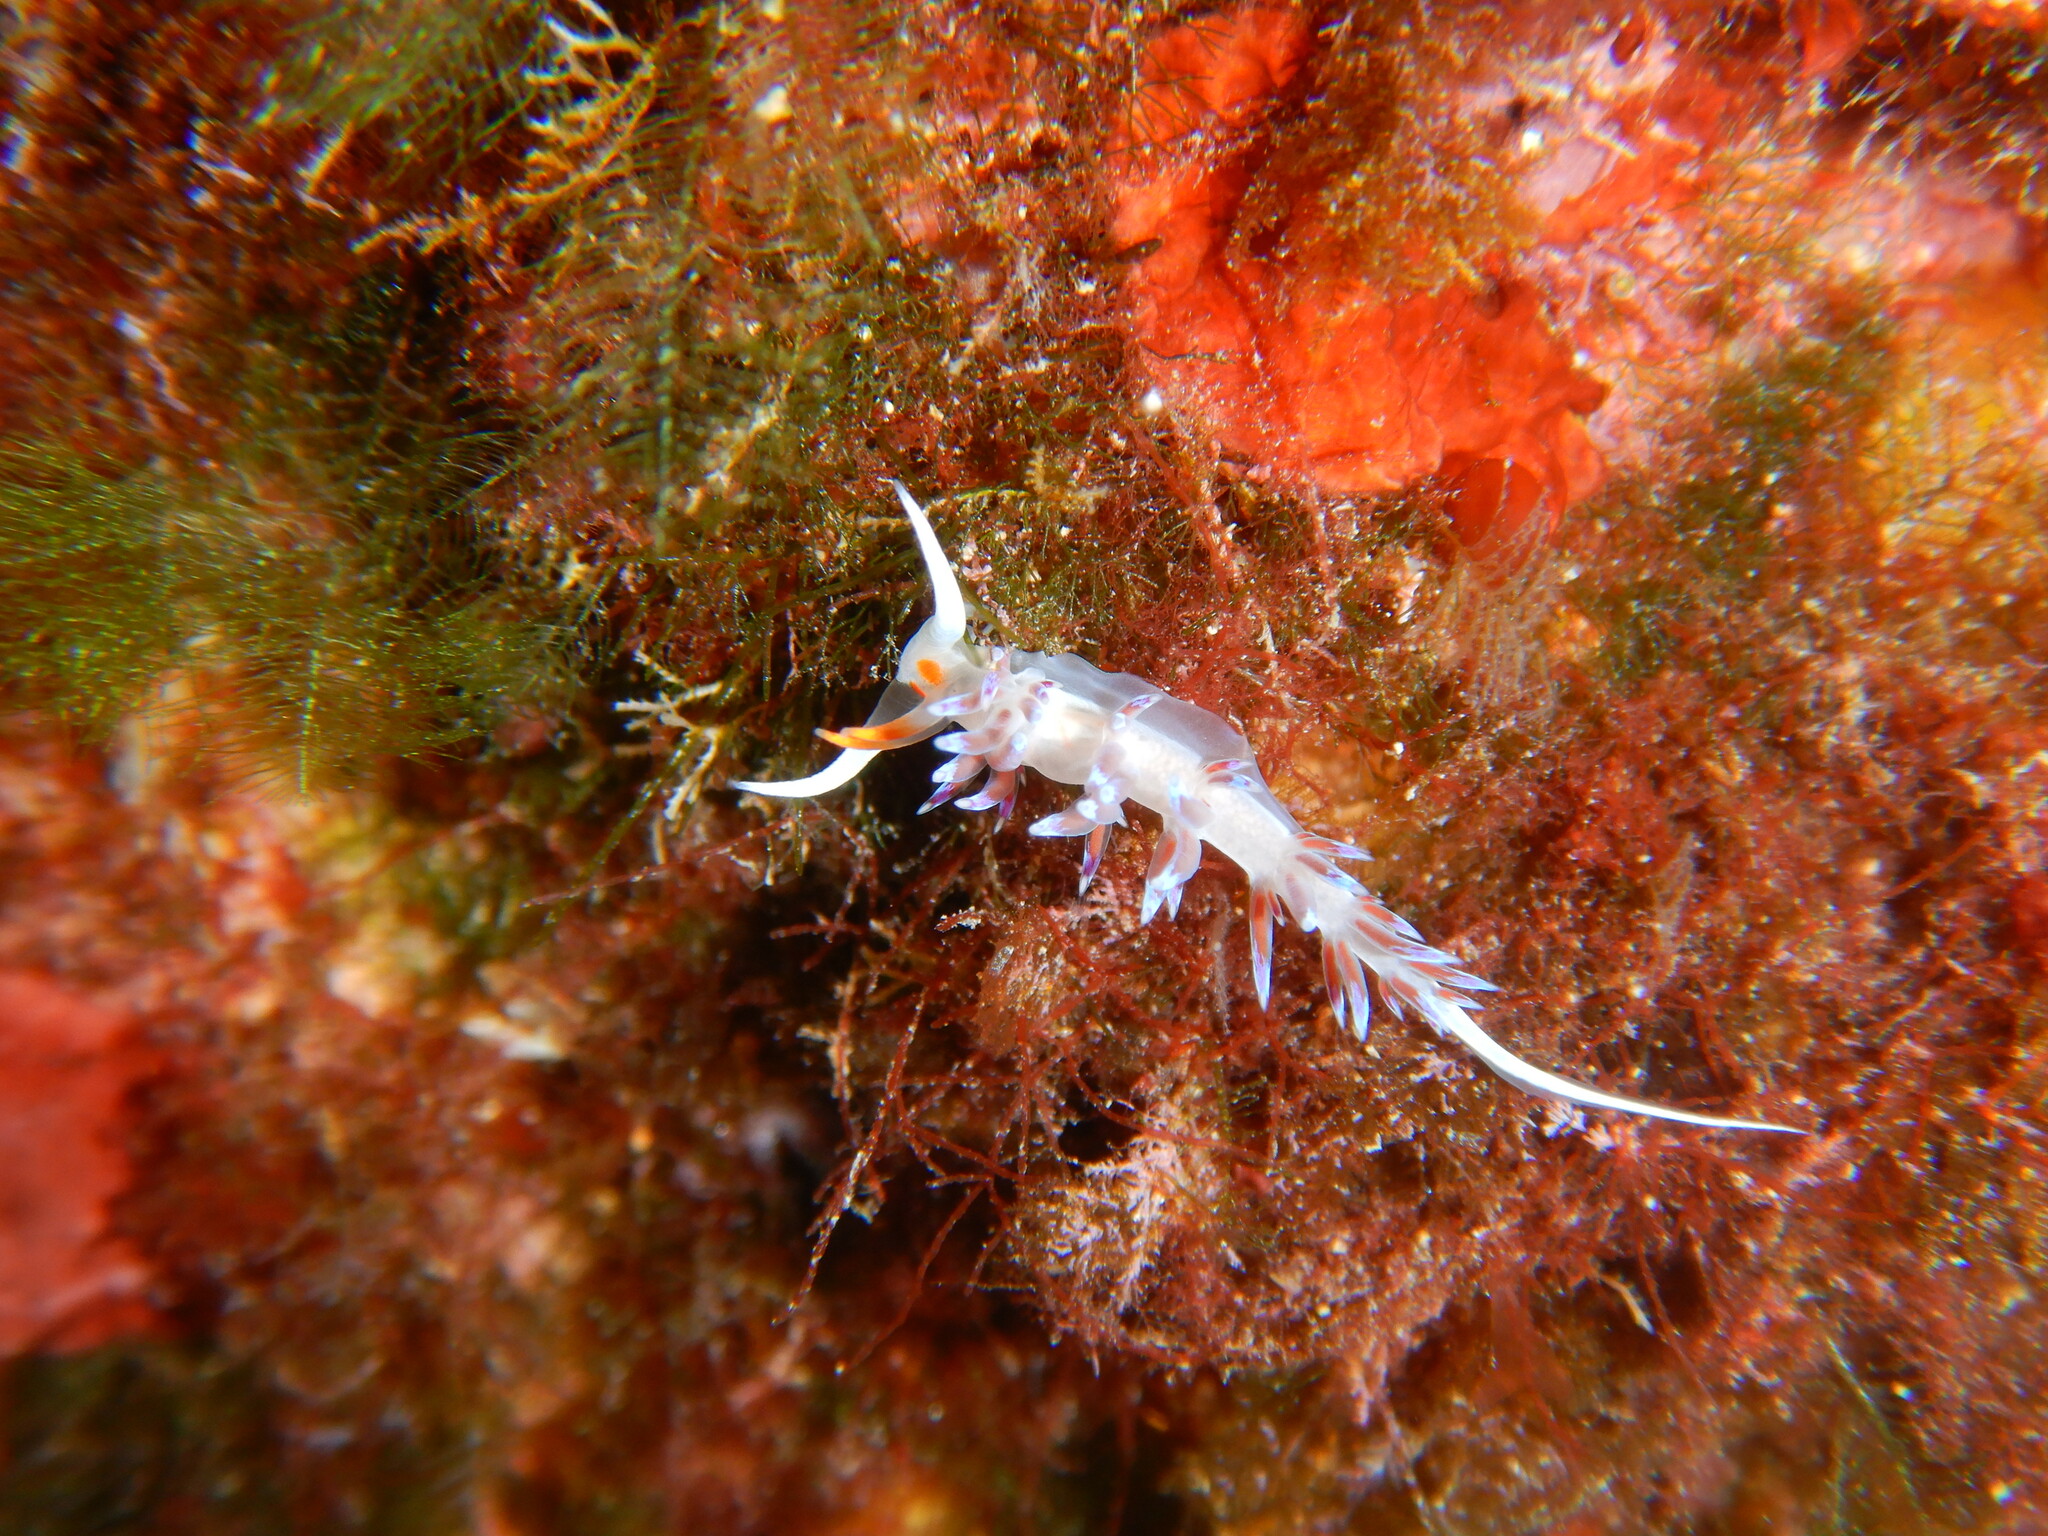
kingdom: Animalia
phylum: Mollusca
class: Gastropoda
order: Nudibranchia
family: Facelinidae
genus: Cratena
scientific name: Cratena peregrina
